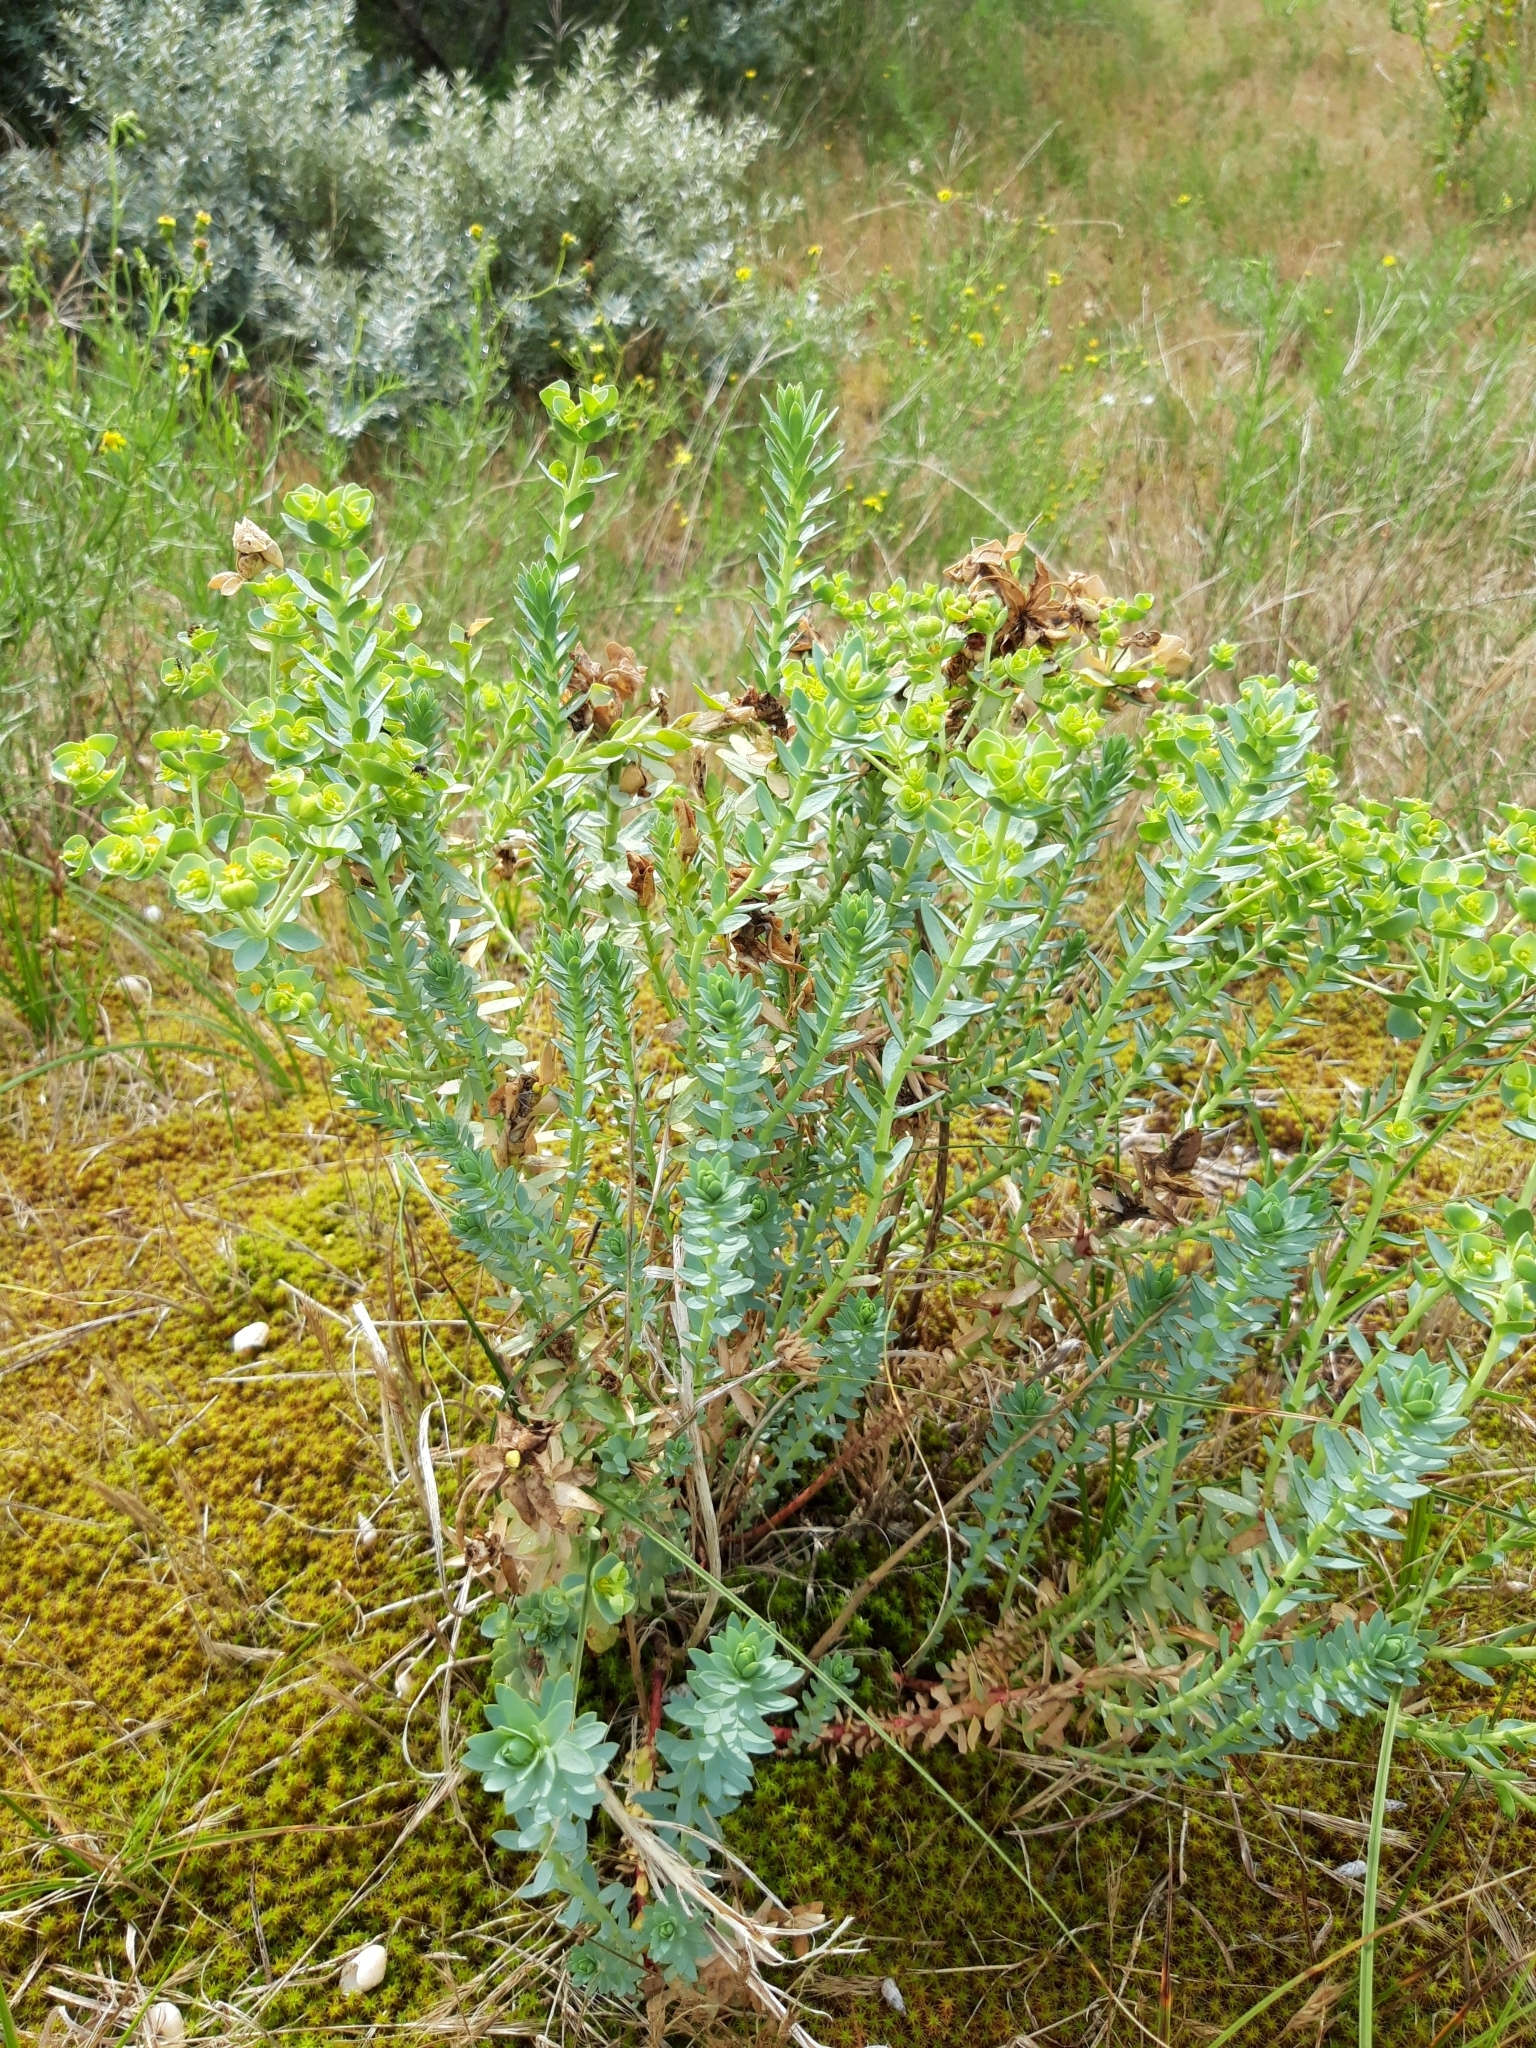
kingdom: Plantae
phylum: Tracheophyta
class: Magnoliopsida
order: Malpighiales
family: Euphorbiaceae
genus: Euphorbia
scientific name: Euphorbia paralias
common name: Sea spurge
